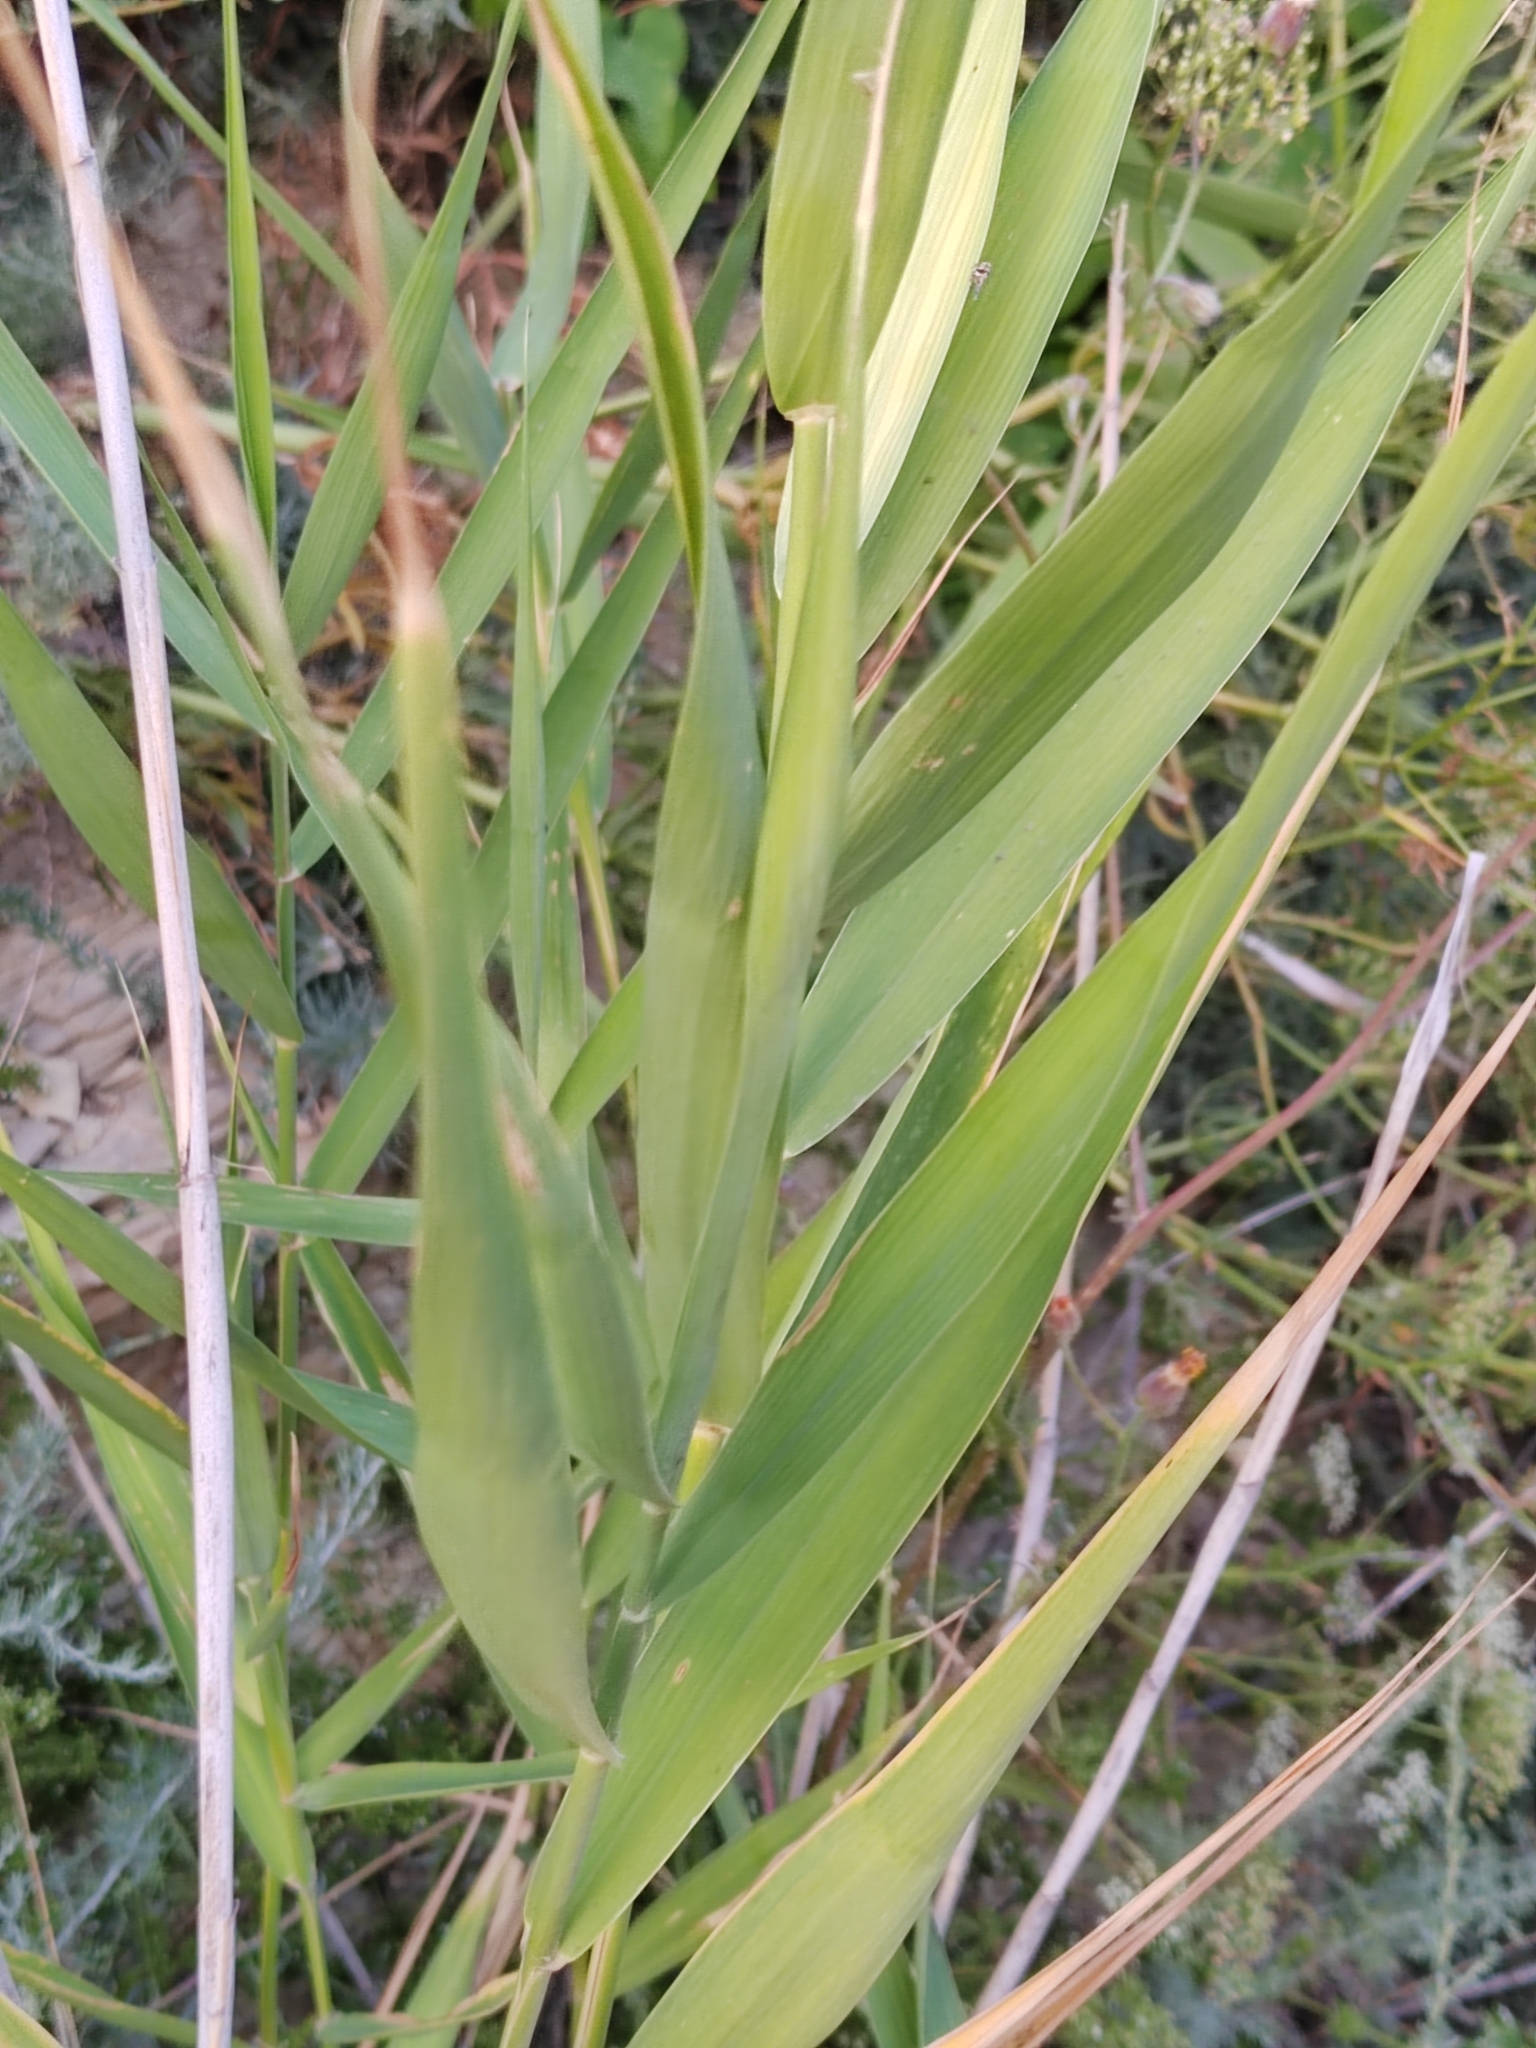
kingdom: Plantae
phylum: Tracheophyta
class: Liliopsida
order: Poales
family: Poaceae
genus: Phragmites
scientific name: Phragmites australis
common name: Common reed
